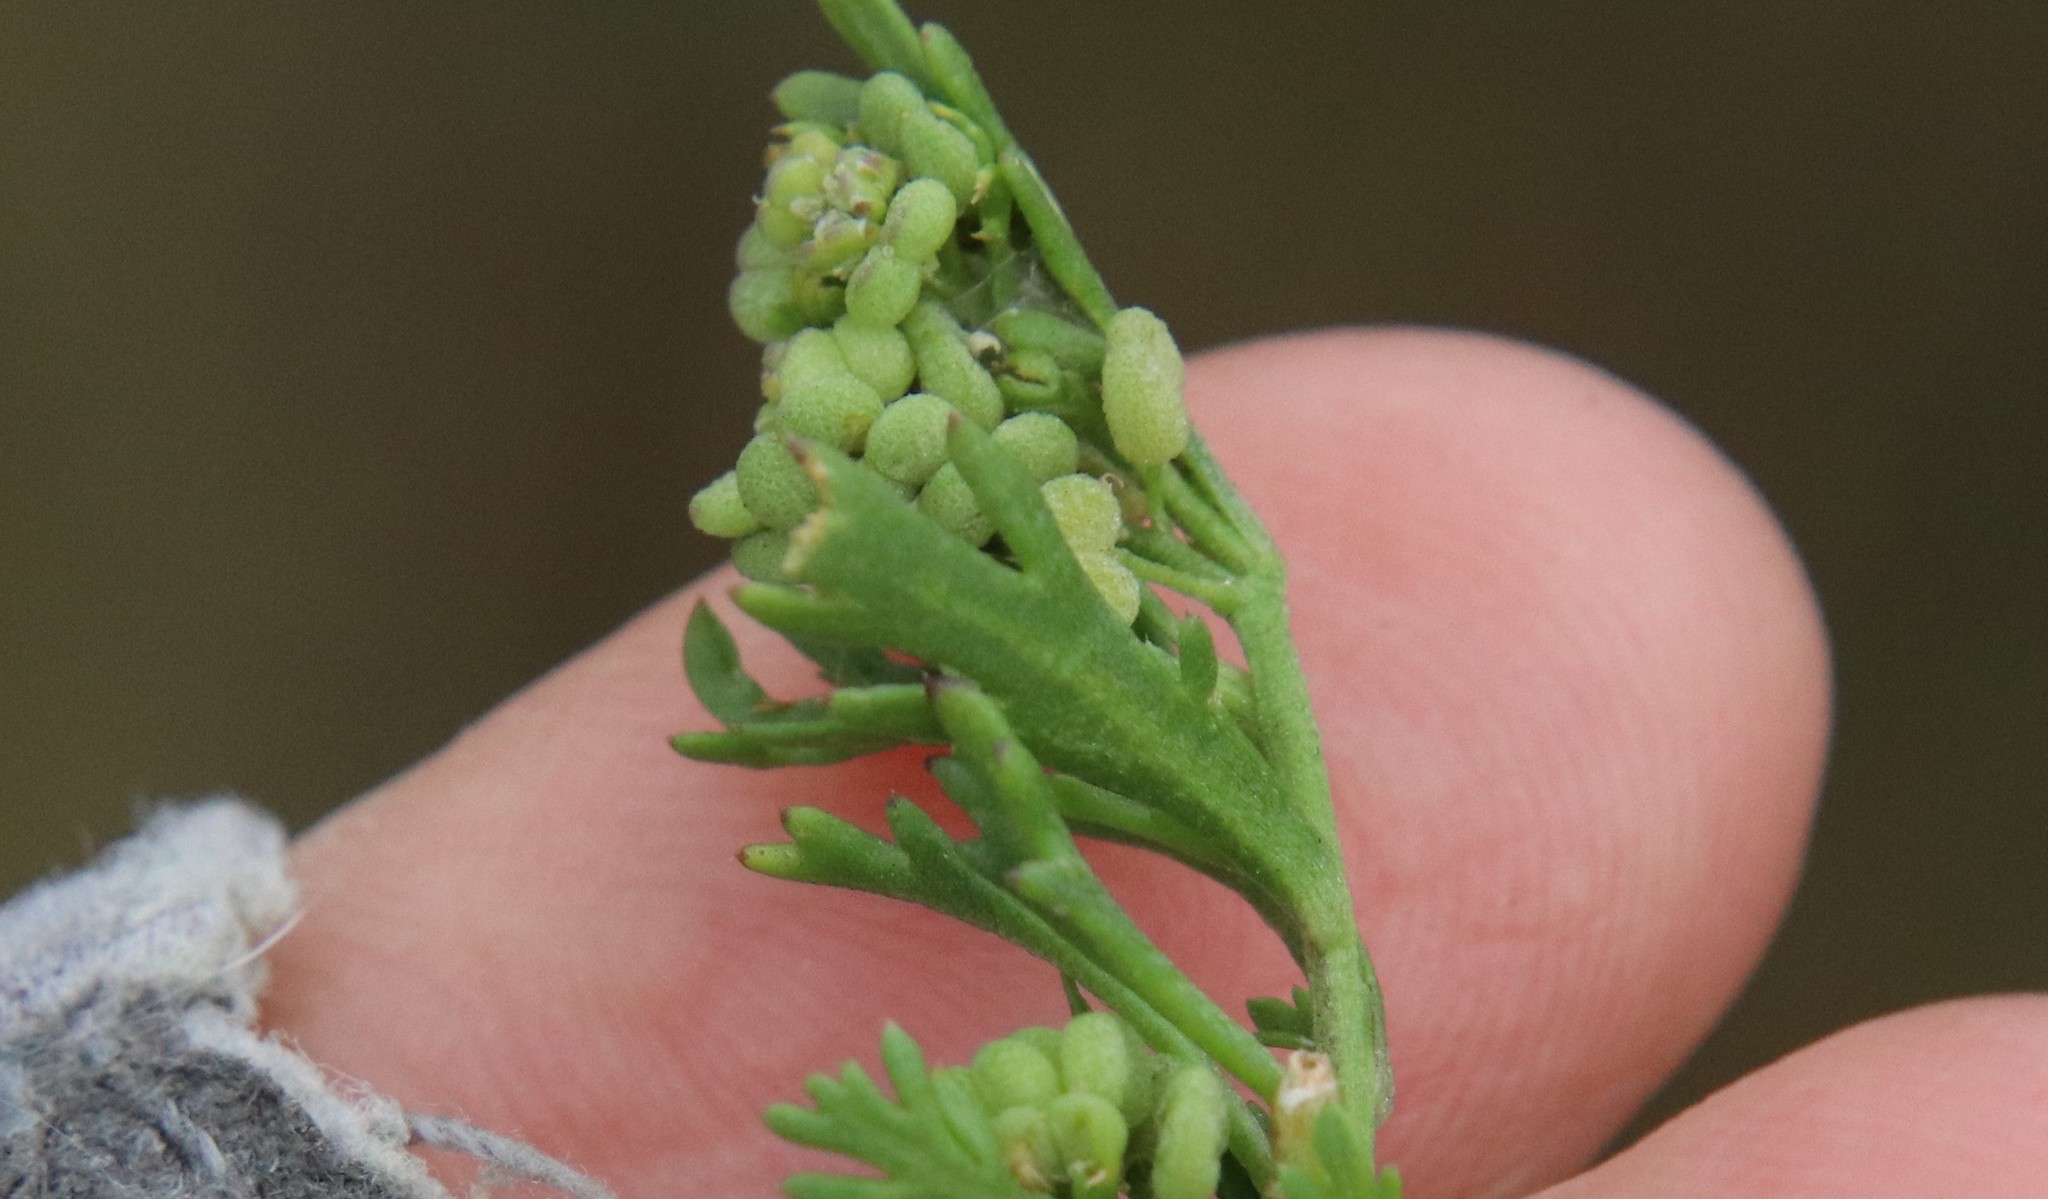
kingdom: Plantae
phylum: Tracheophyta
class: Magnoliopsida
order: Brassicales
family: Brassicaceae
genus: Lepidium
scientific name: Lepidium didymum
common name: Lesser swinecress
